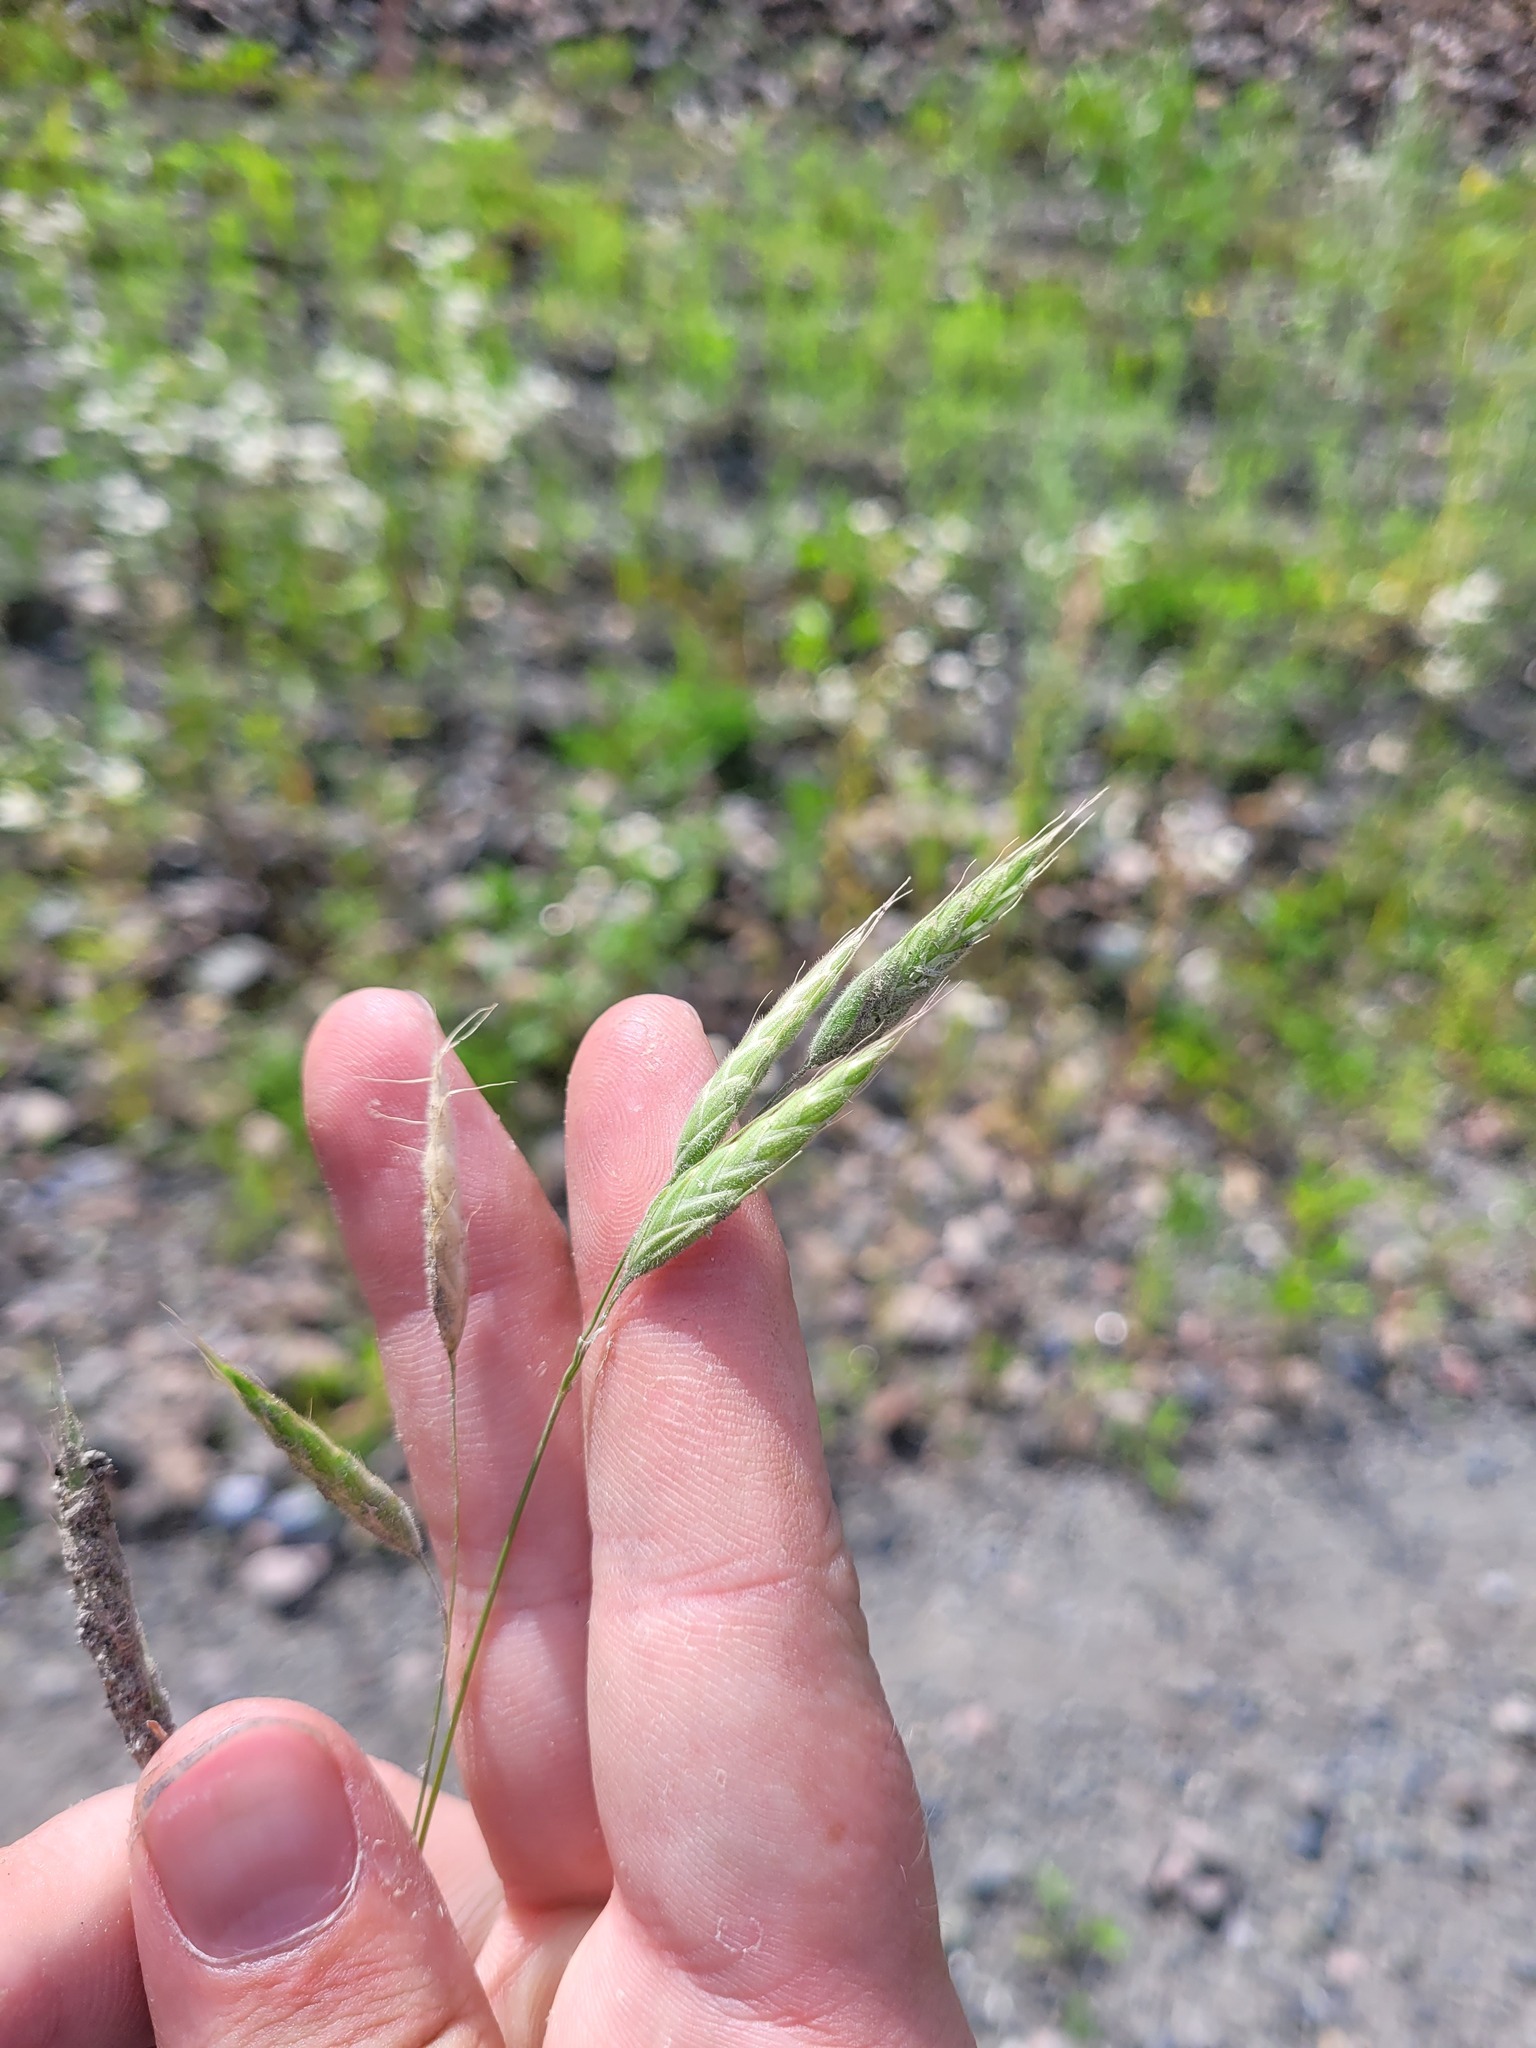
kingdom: Plantae
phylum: Tracheophyta
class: Liliopsida
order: Poales
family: Poaceae
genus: Bromus
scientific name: Bromus squarrosus
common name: Corn brome
